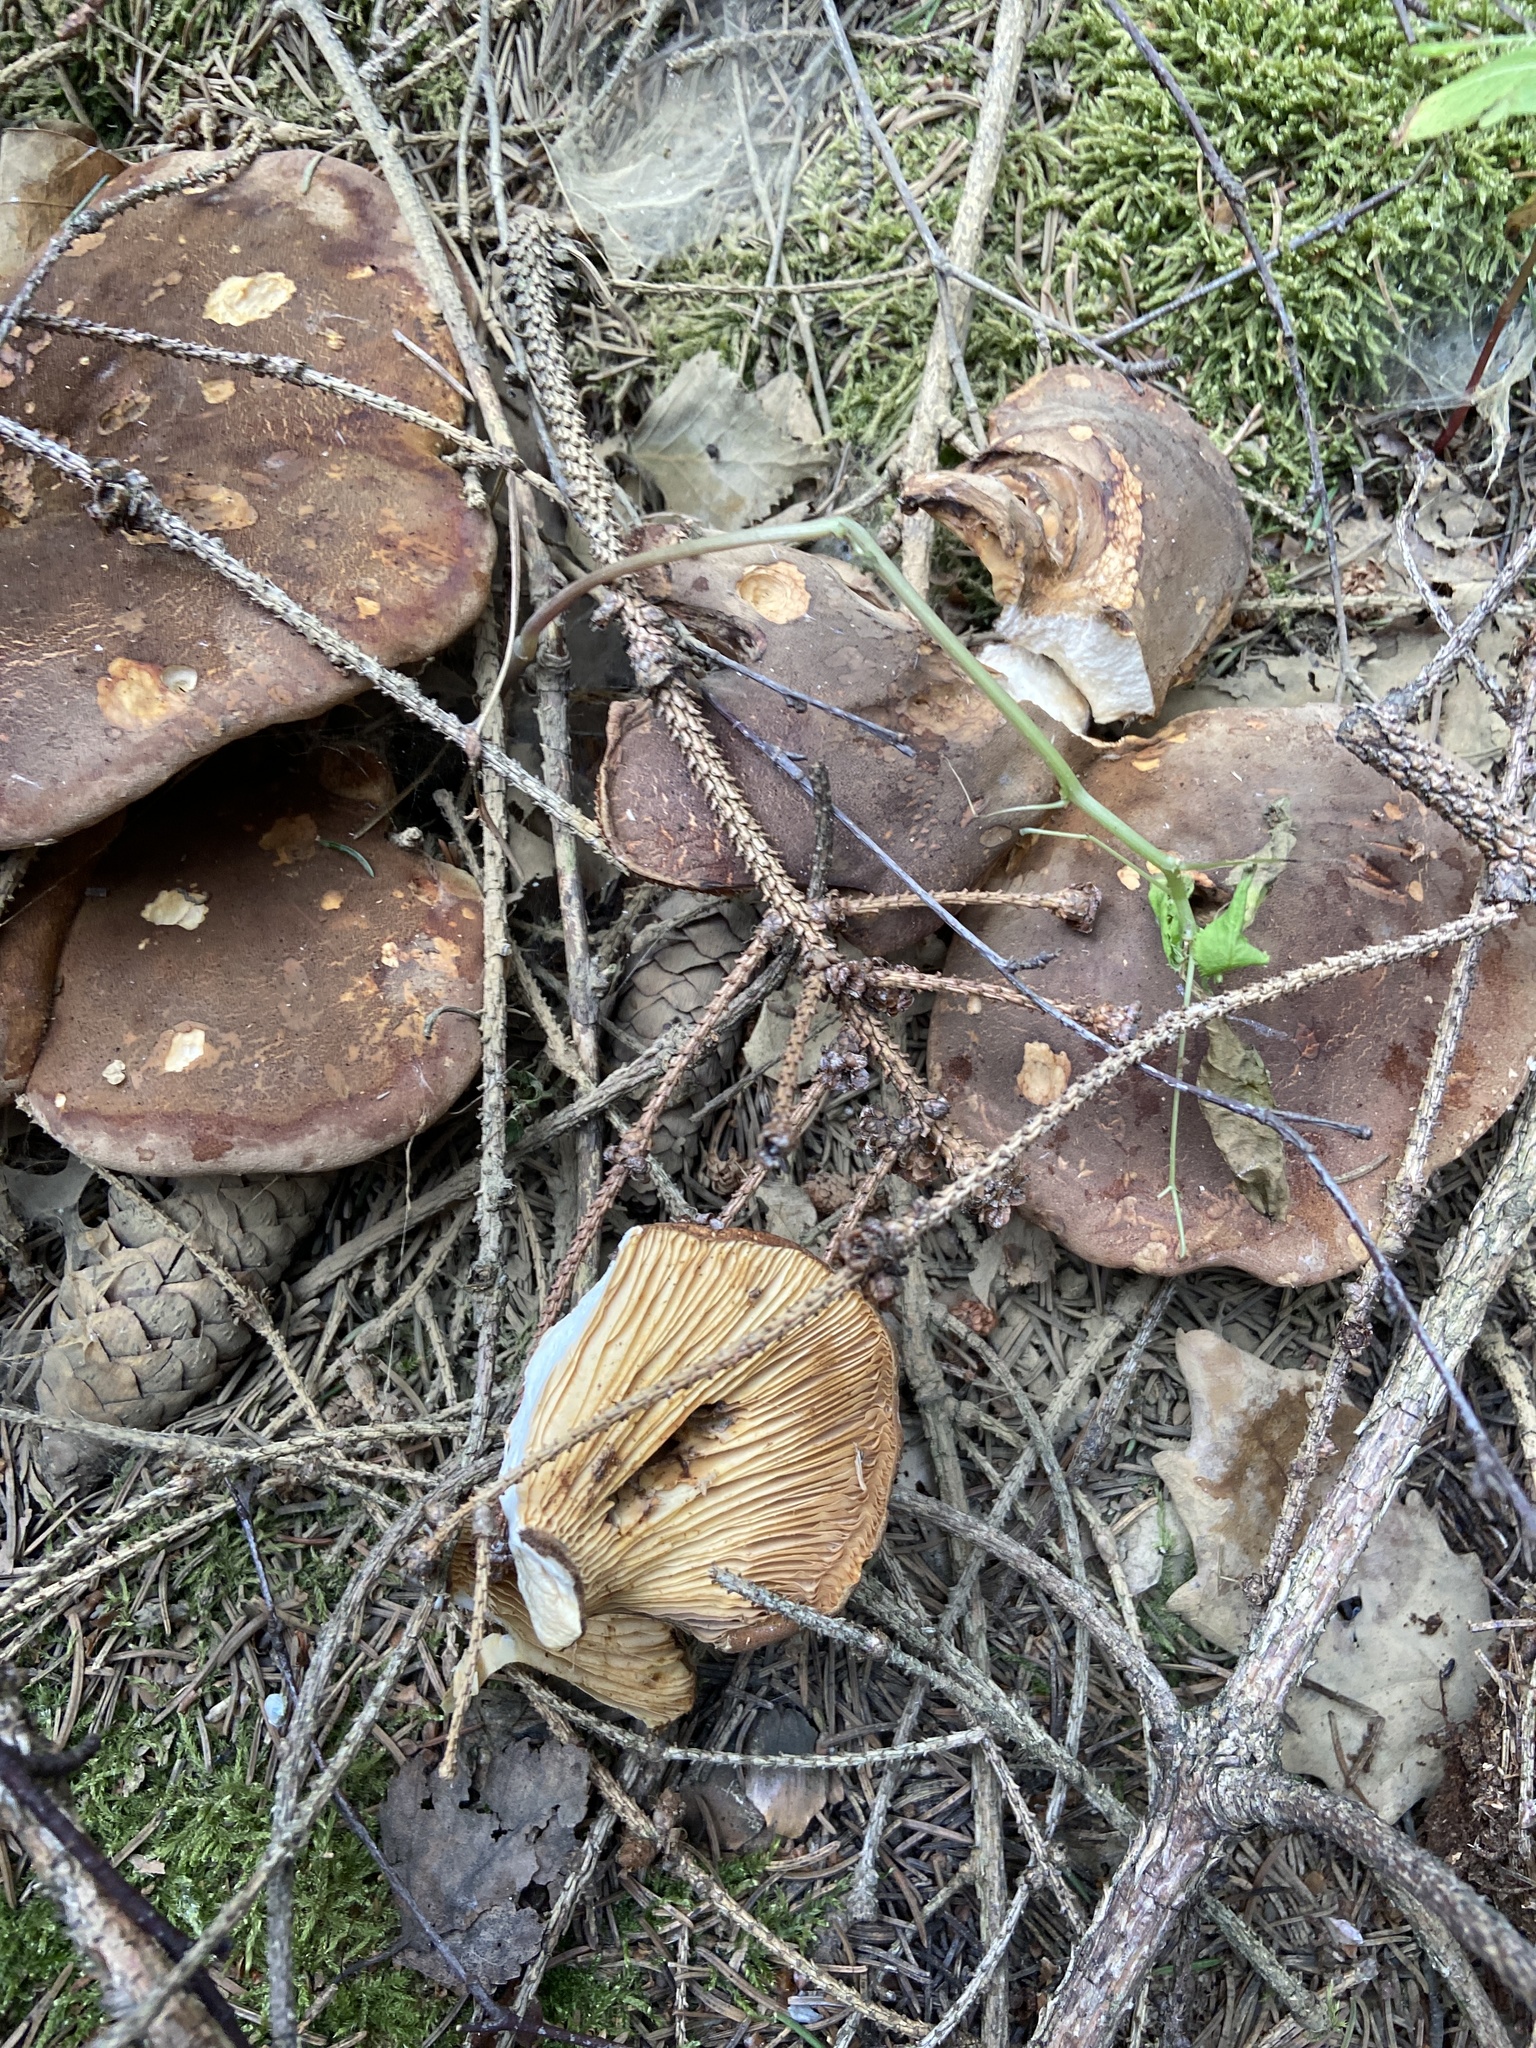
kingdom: Fungi
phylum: Basidiomycota
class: Agaricomycetes
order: Boletales
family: Tapinellaceae
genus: Tapinella
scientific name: Tapinella atrotomentosa
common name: Velvet rollrim
